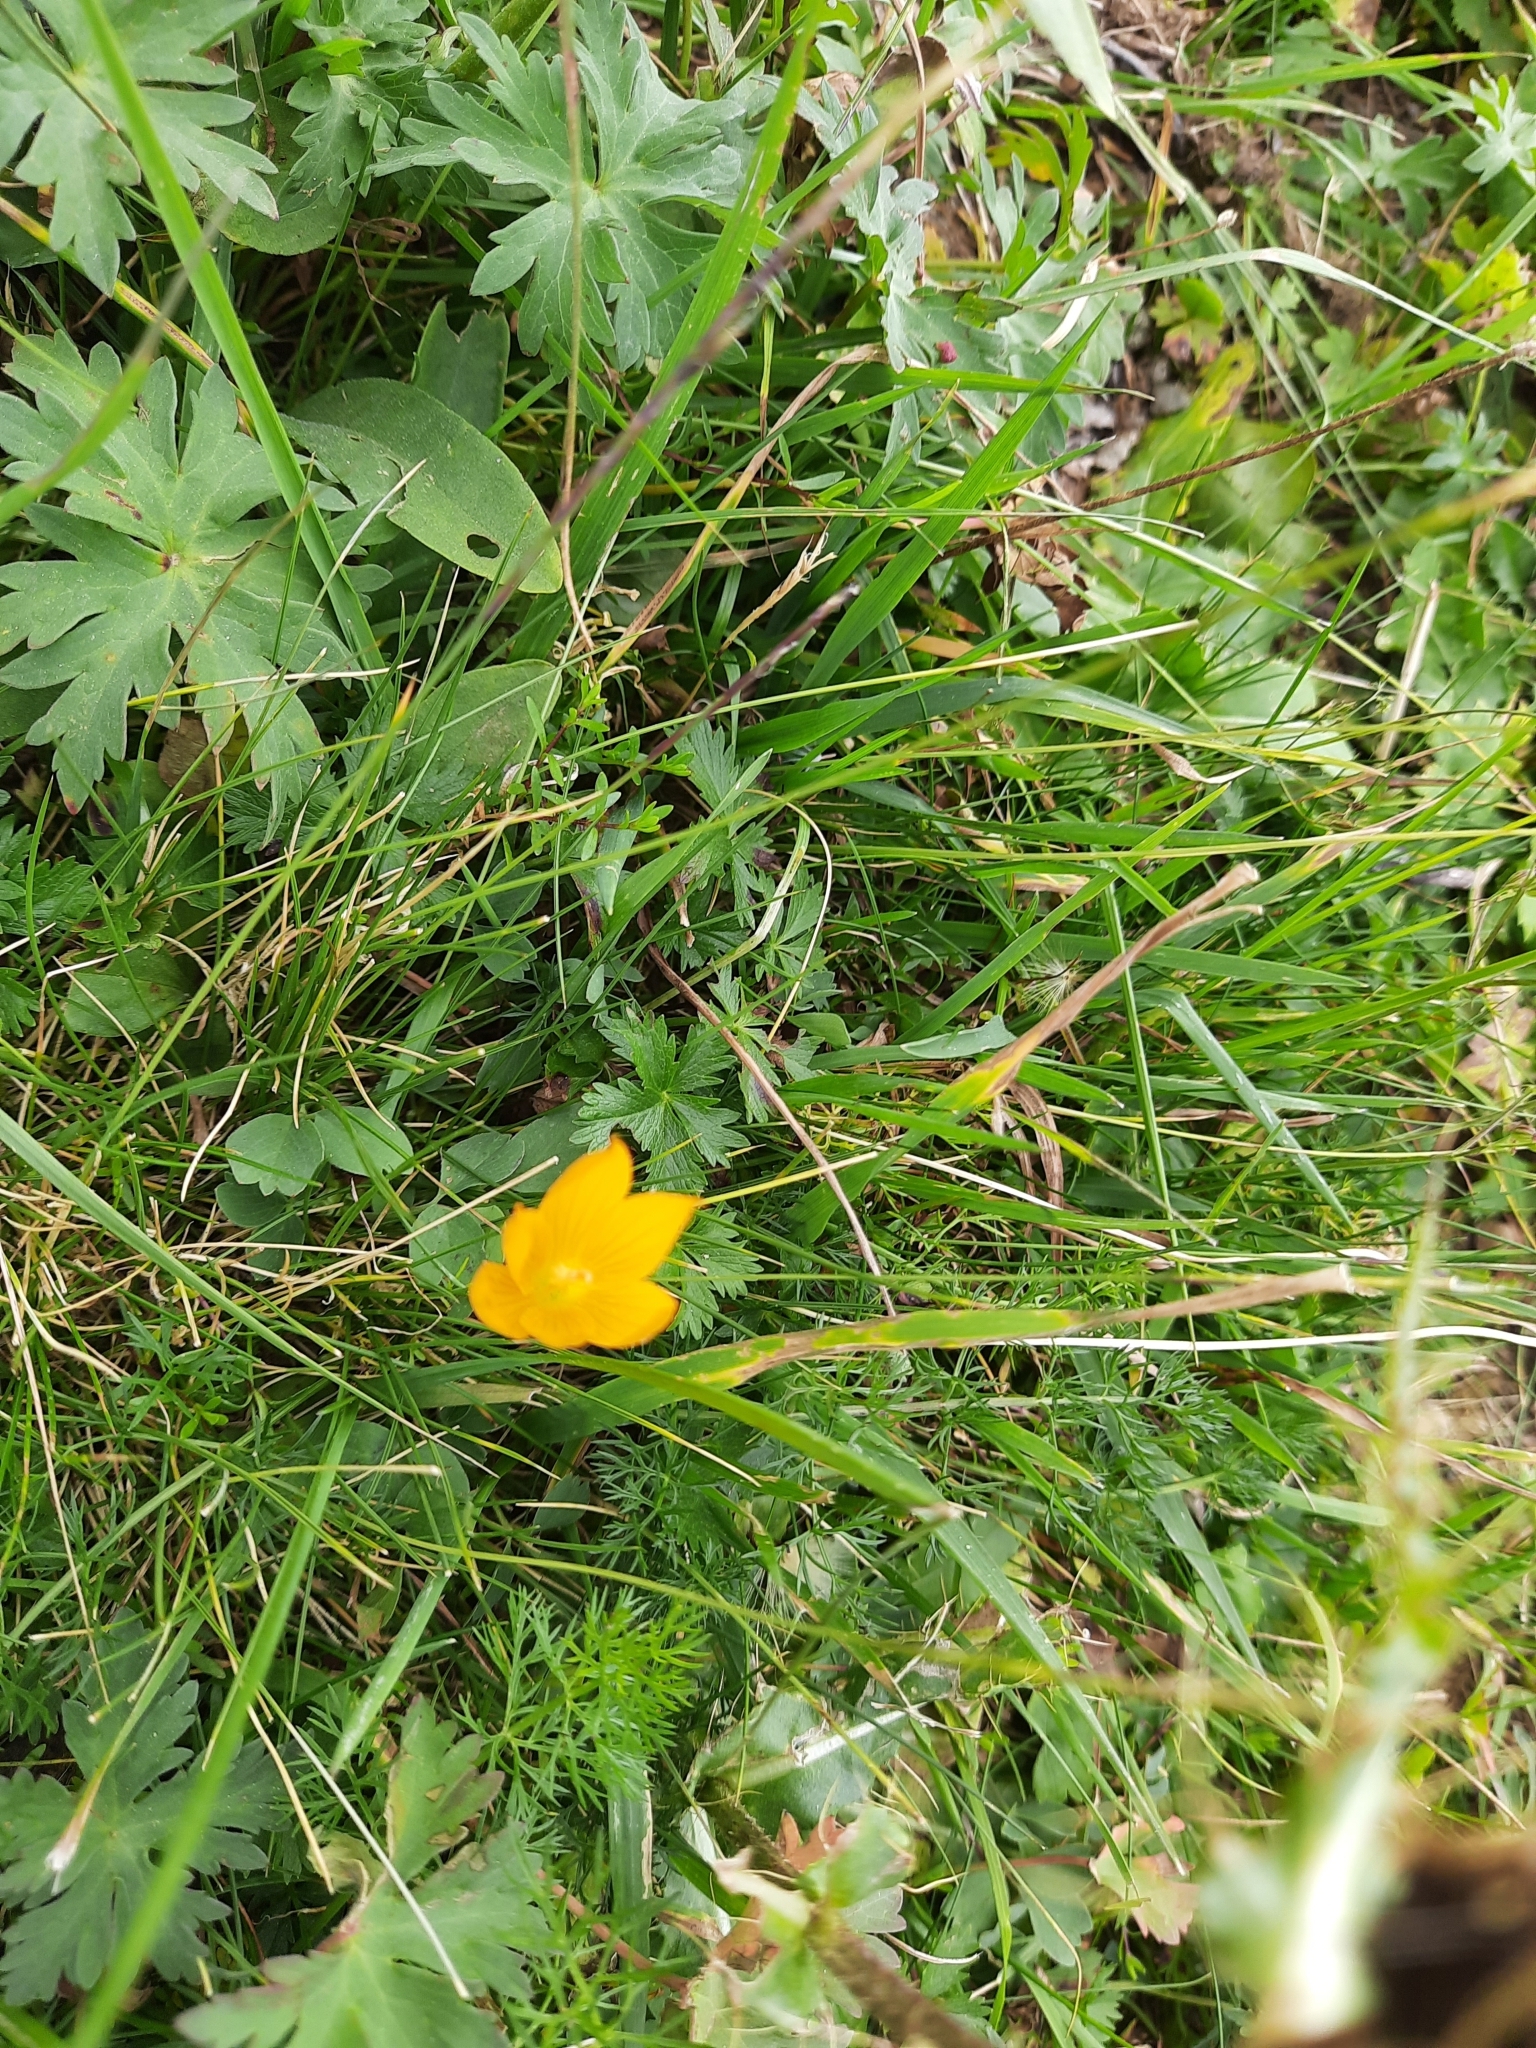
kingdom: Plantae
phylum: Tracheophyta
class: Liliopsida
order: Asparagales
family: Iridaceae
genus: Crocus
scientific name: Crocus scharojanii
